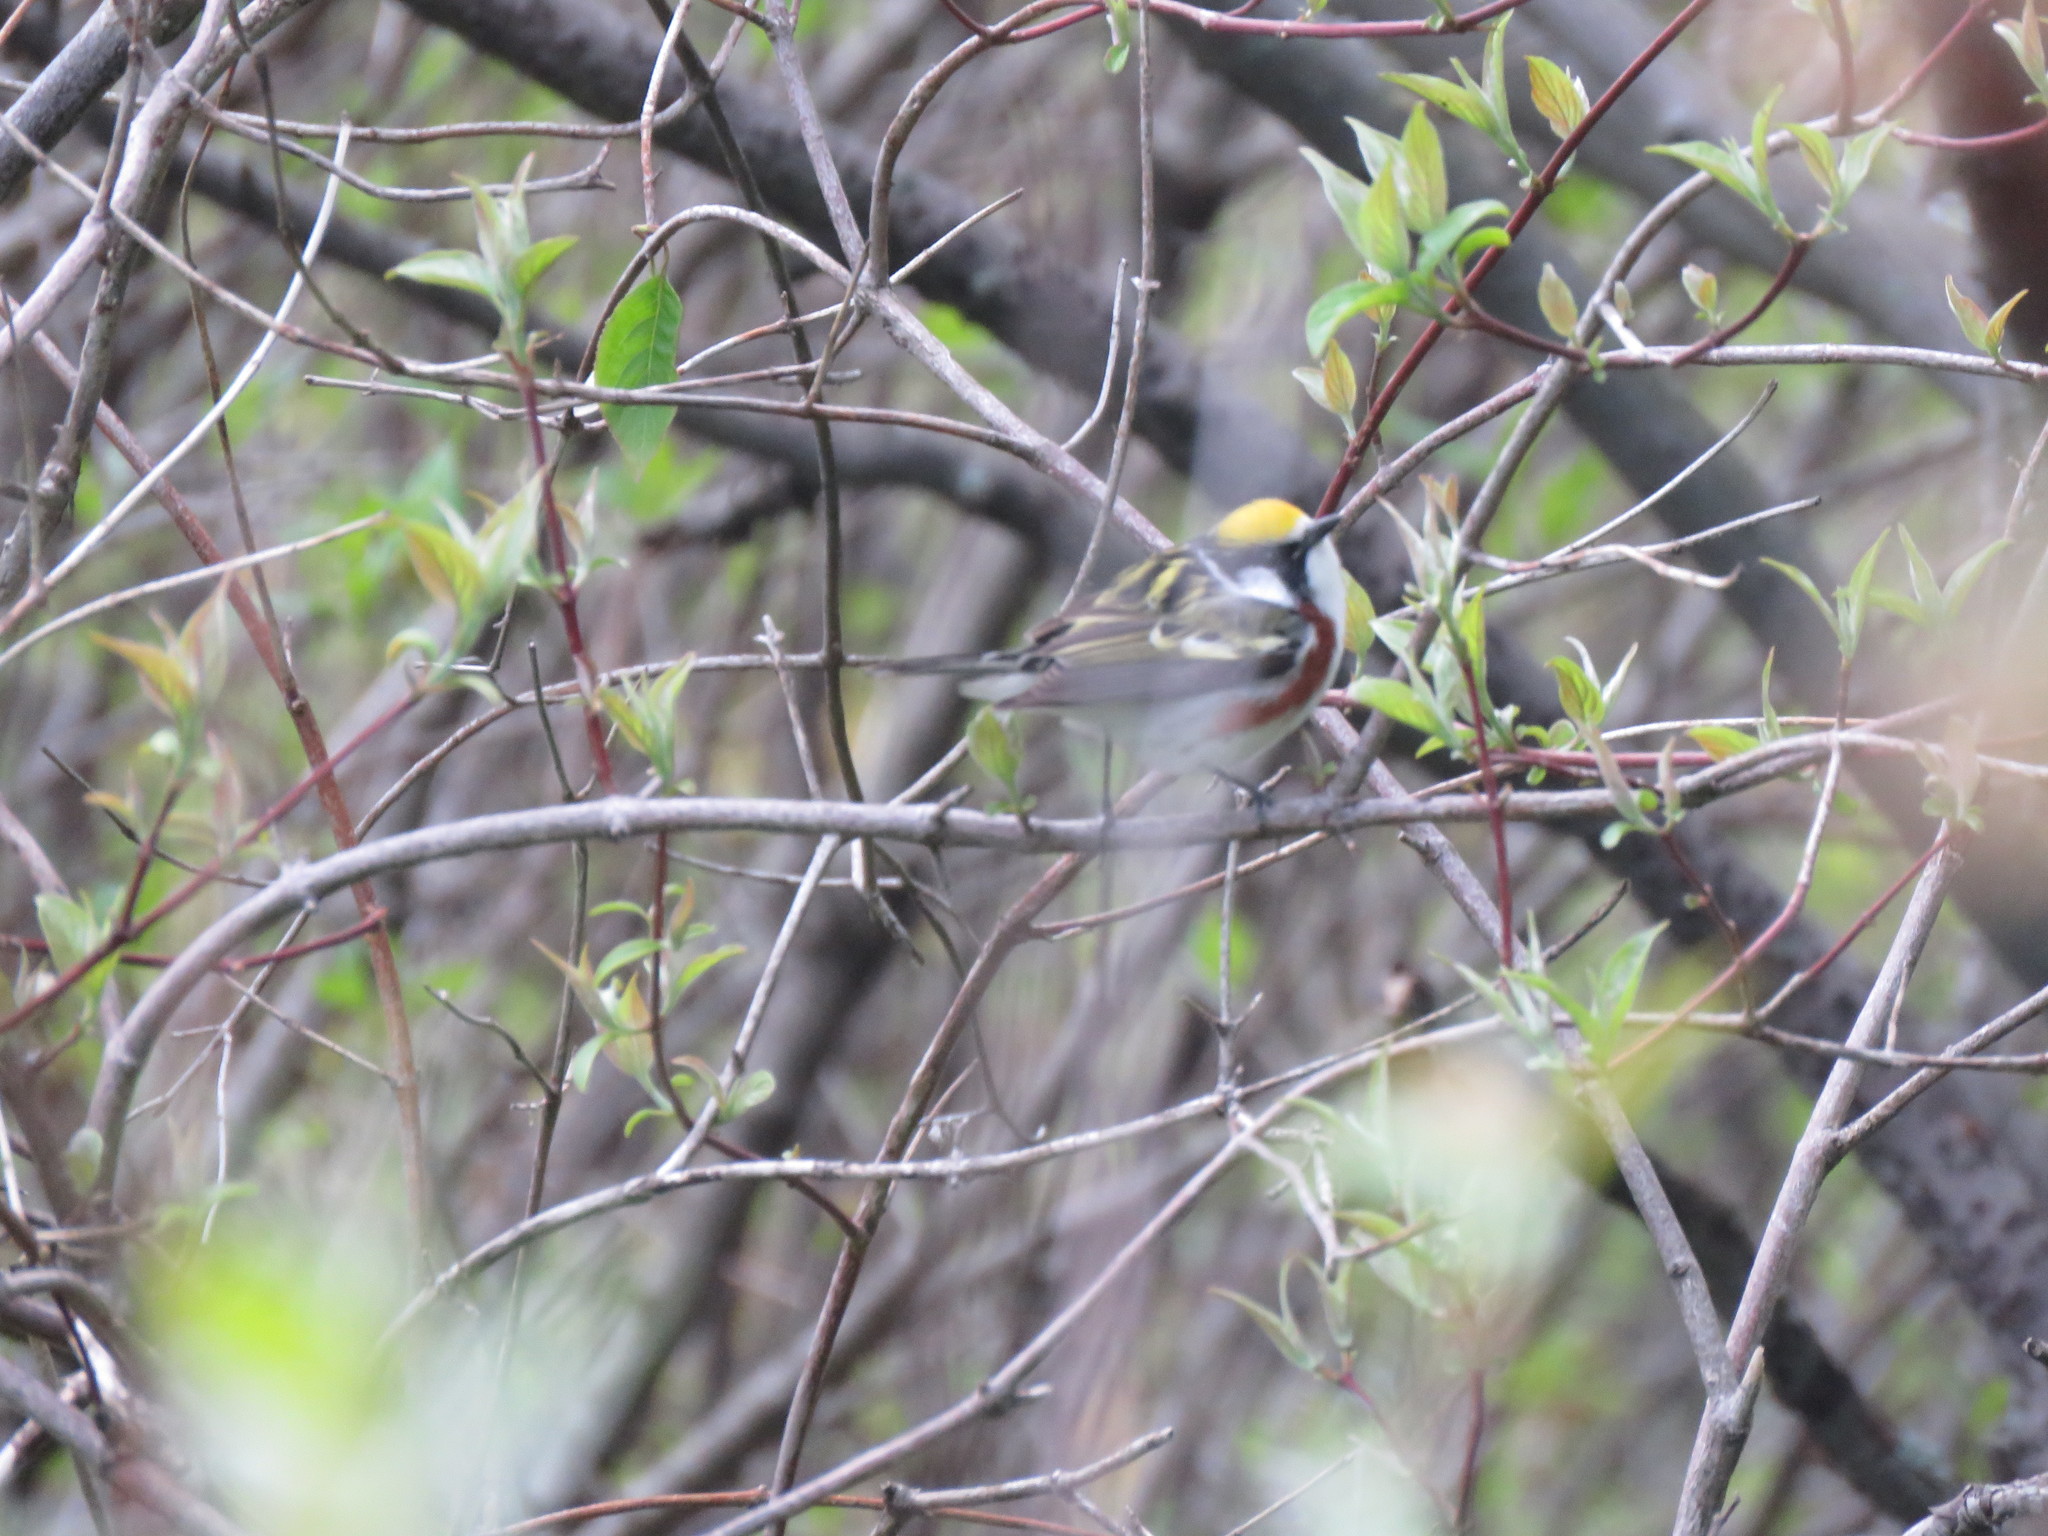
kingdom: Animalia
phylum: Chordata
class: Aves
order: Passeriformes
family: Parulidae
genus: Setophaga
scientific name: Setophaga pensylvanica
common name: Chestnut-sided warbler
